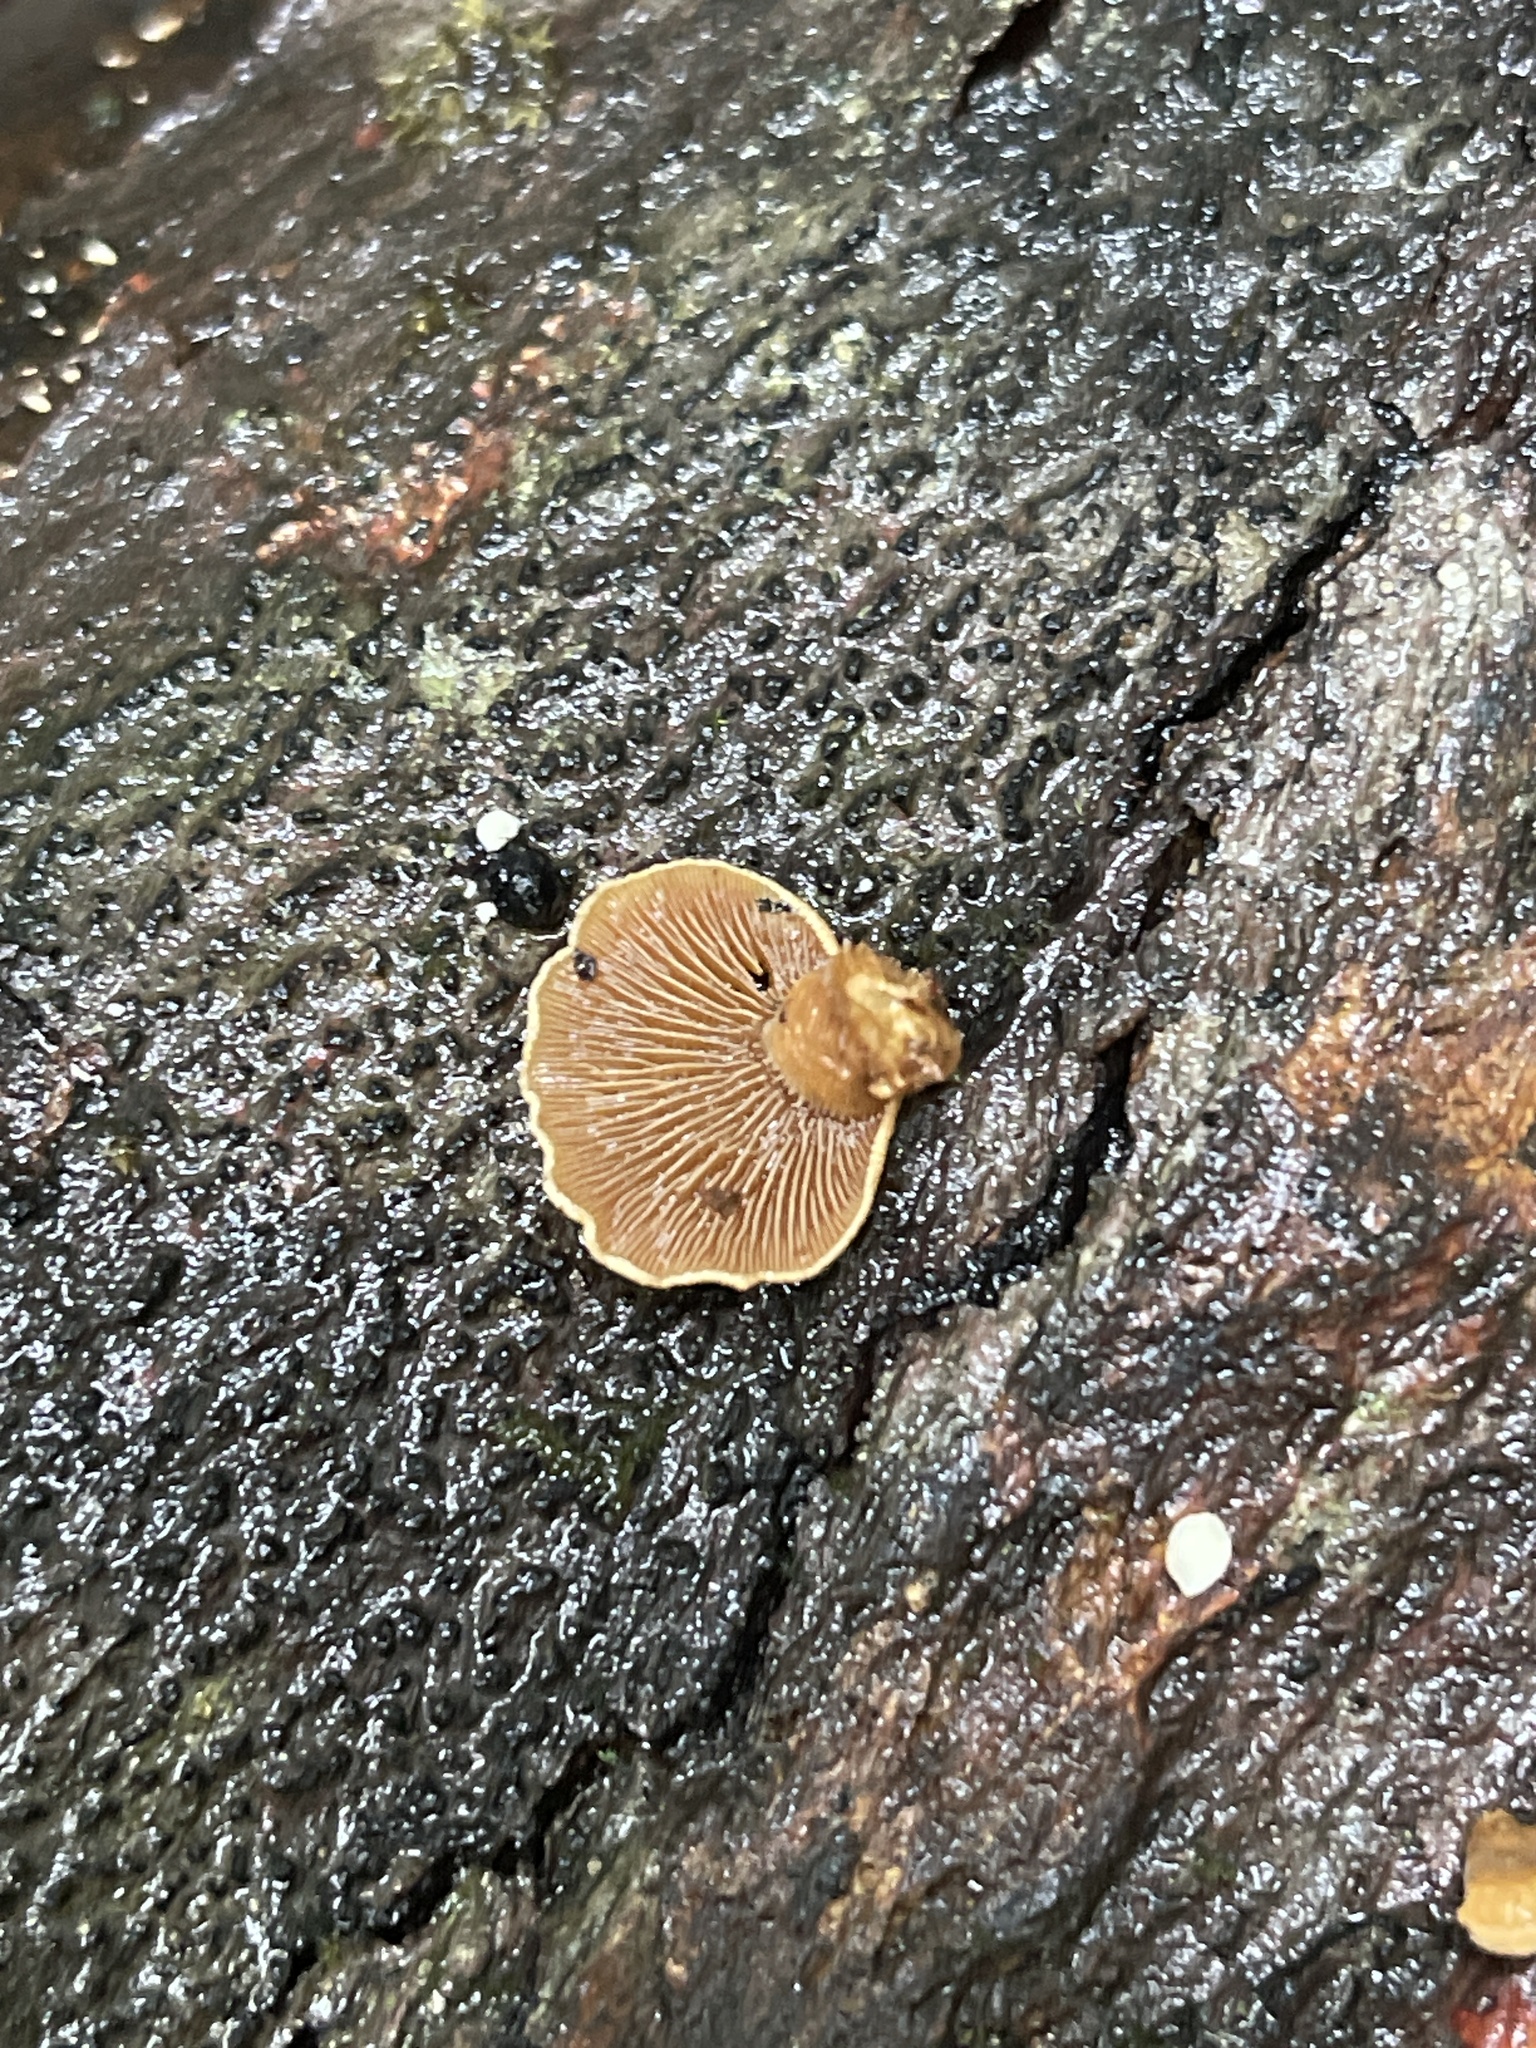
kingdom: Fungi
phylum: Basidiomycota
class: Agaricomycetes
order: Agaricales
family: Mycenaceae
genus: Panellus
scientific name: Panellus stipticus
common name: Bitter oysterling
